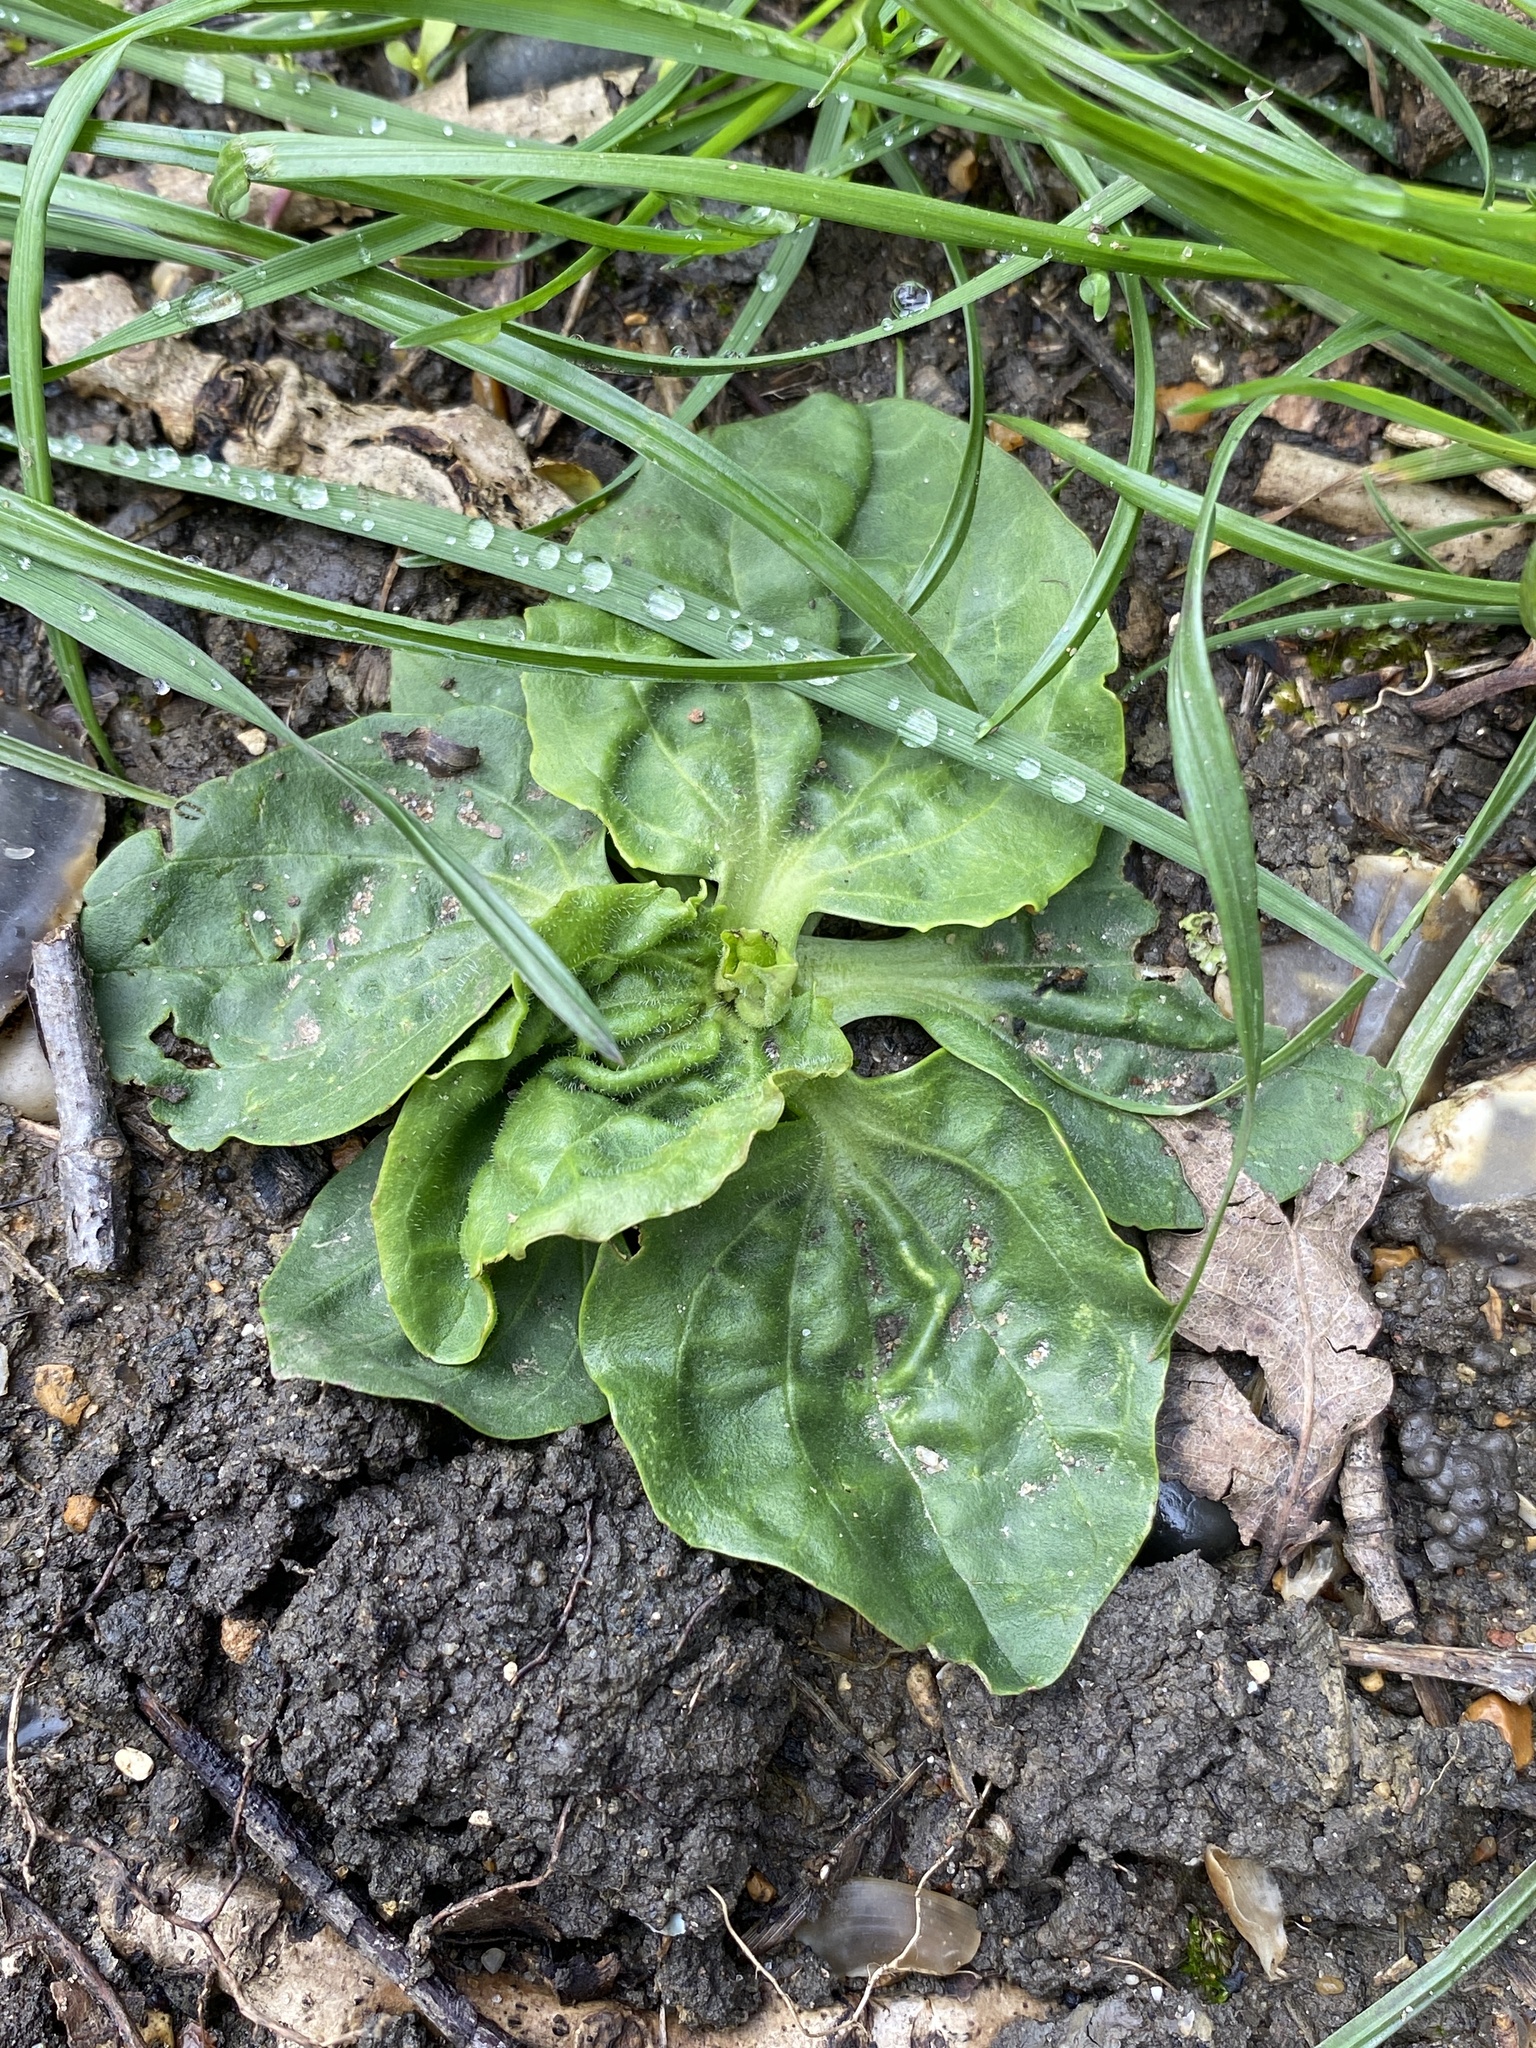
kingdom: Plantae
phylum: Tracheophyta
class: Magnoliopsida
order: Lamiales
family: Plantaginaceae
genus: Plantago
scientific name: Plantago major
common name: Common plantain
